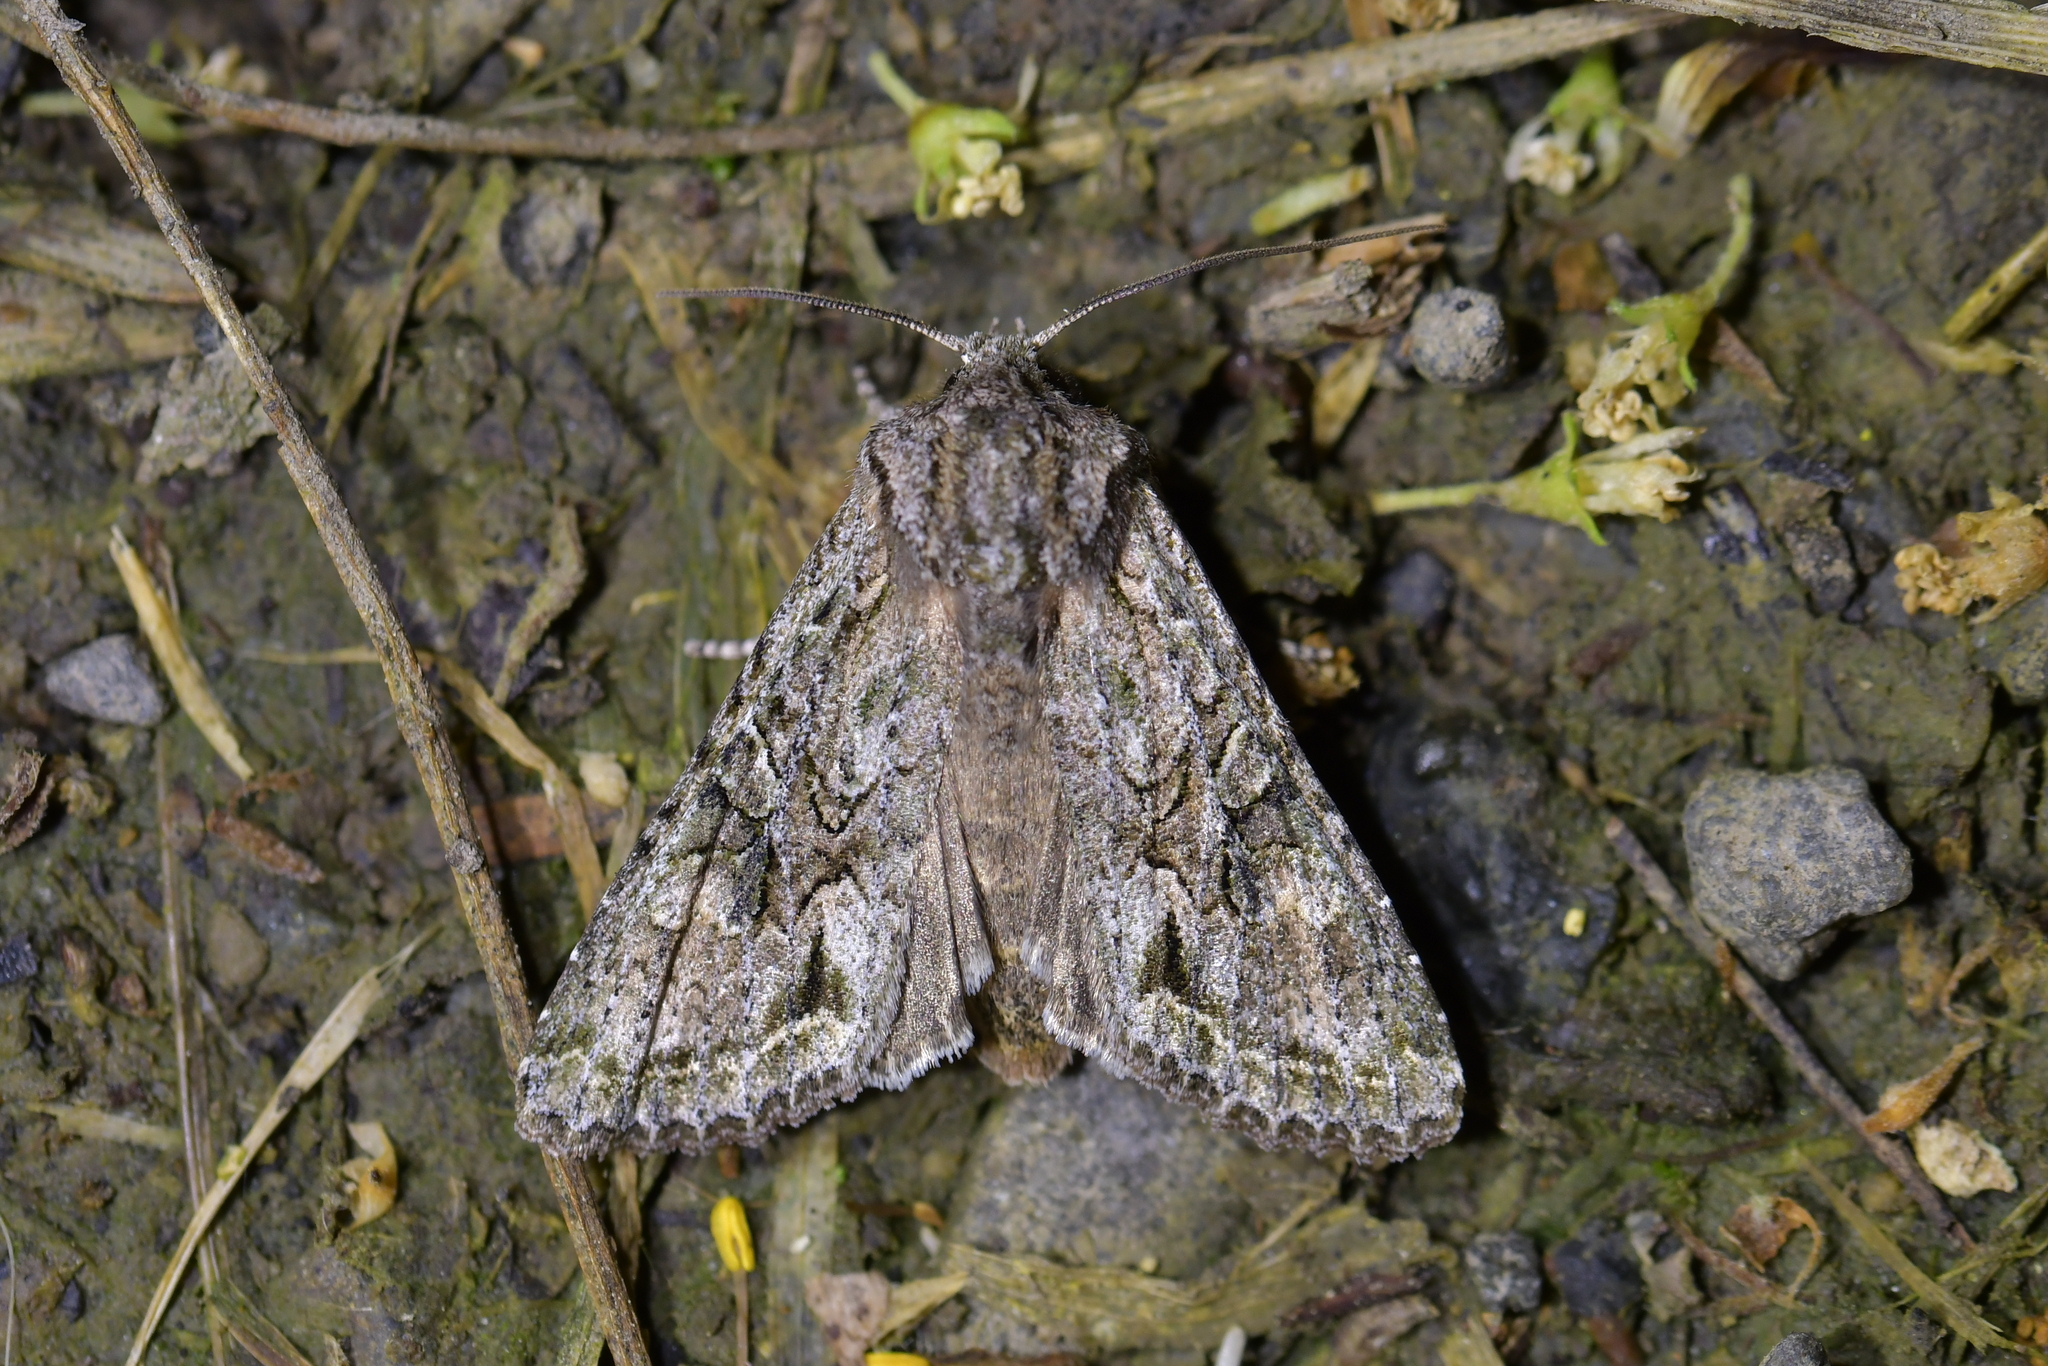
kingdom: Animalia
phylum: Arthropoda
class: Insecta
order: Lepidoptera
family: Noctuidae
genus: Ichneutica
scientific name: Ichneutica mutans
